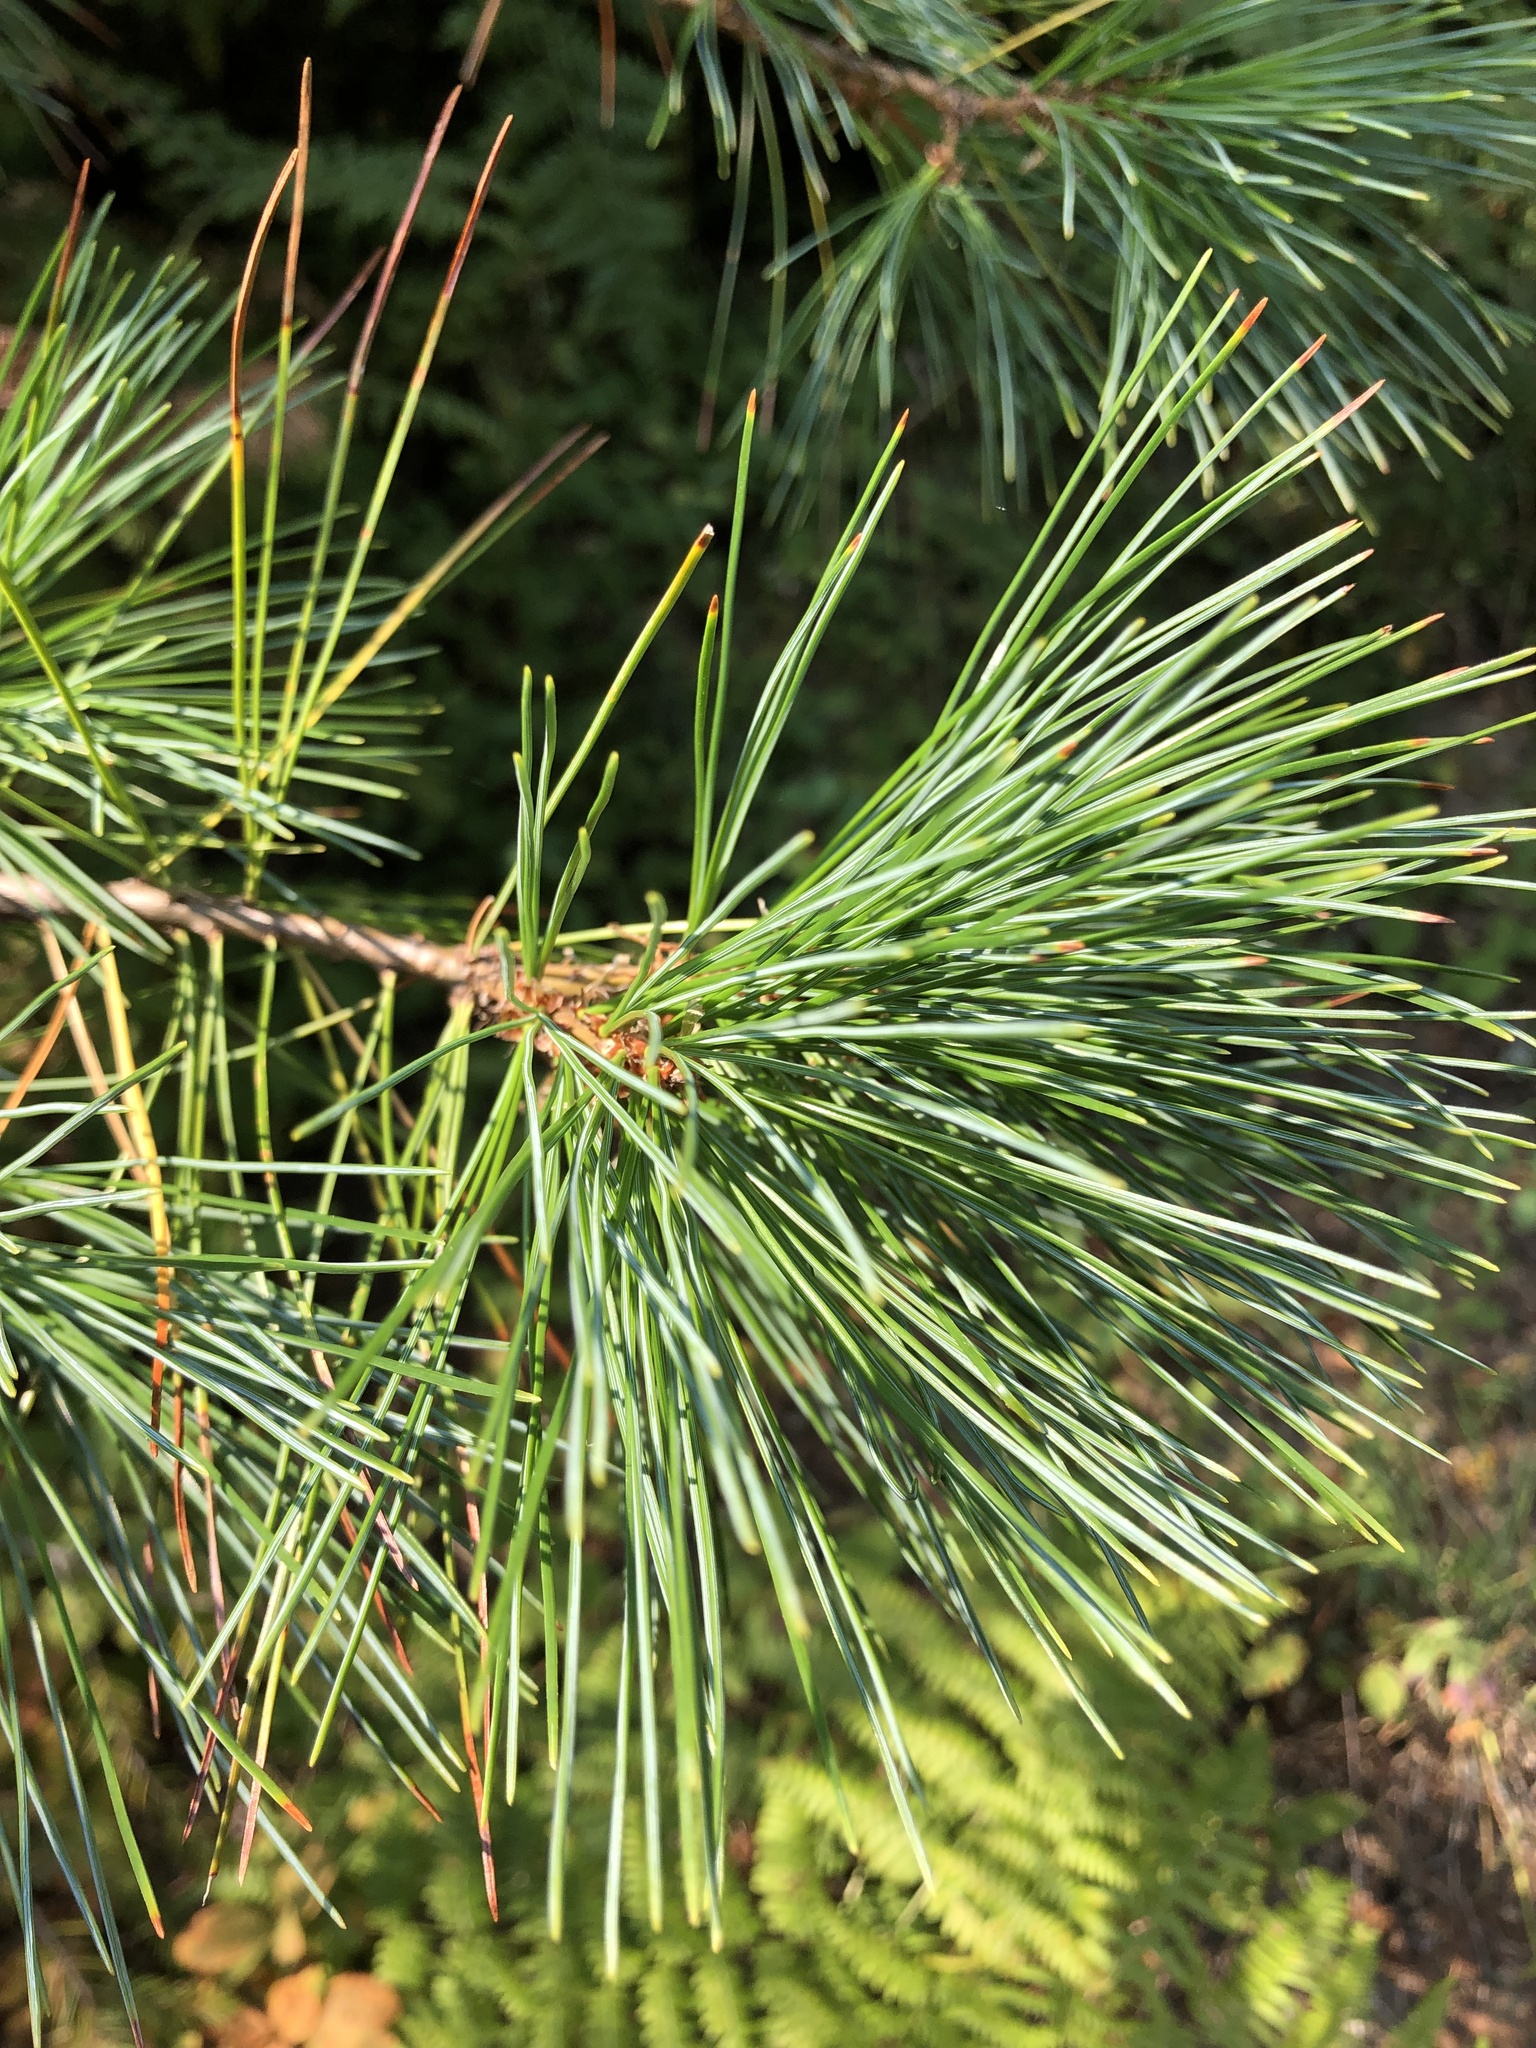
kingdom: Plantae
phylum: Tracheophyta
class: Pinopsida
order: Pinales
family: Pinaceae
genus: Pinus
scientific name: Pinus monticola
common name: Western white pine
